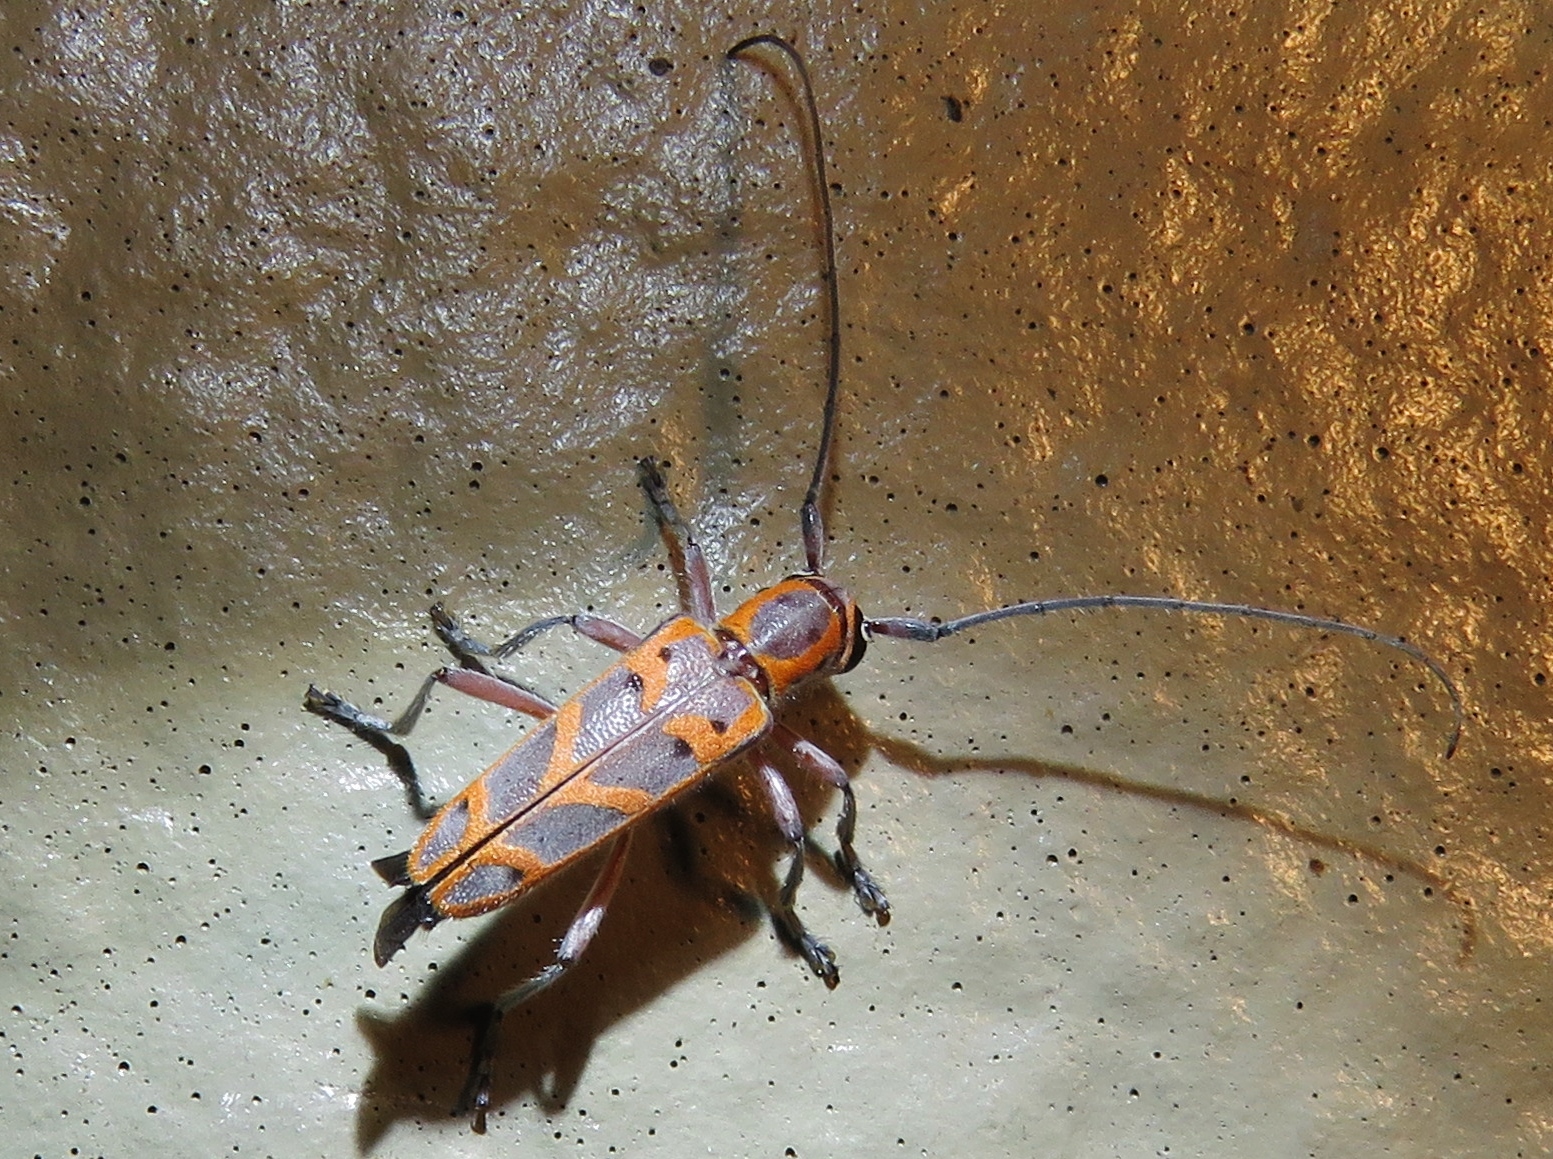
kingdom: Animalia
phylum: Arthropoda
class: Insecta
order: Coleoptera
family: Cerambycidae
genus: Saperda
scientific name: Saperda tridentata
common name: Elm borer
